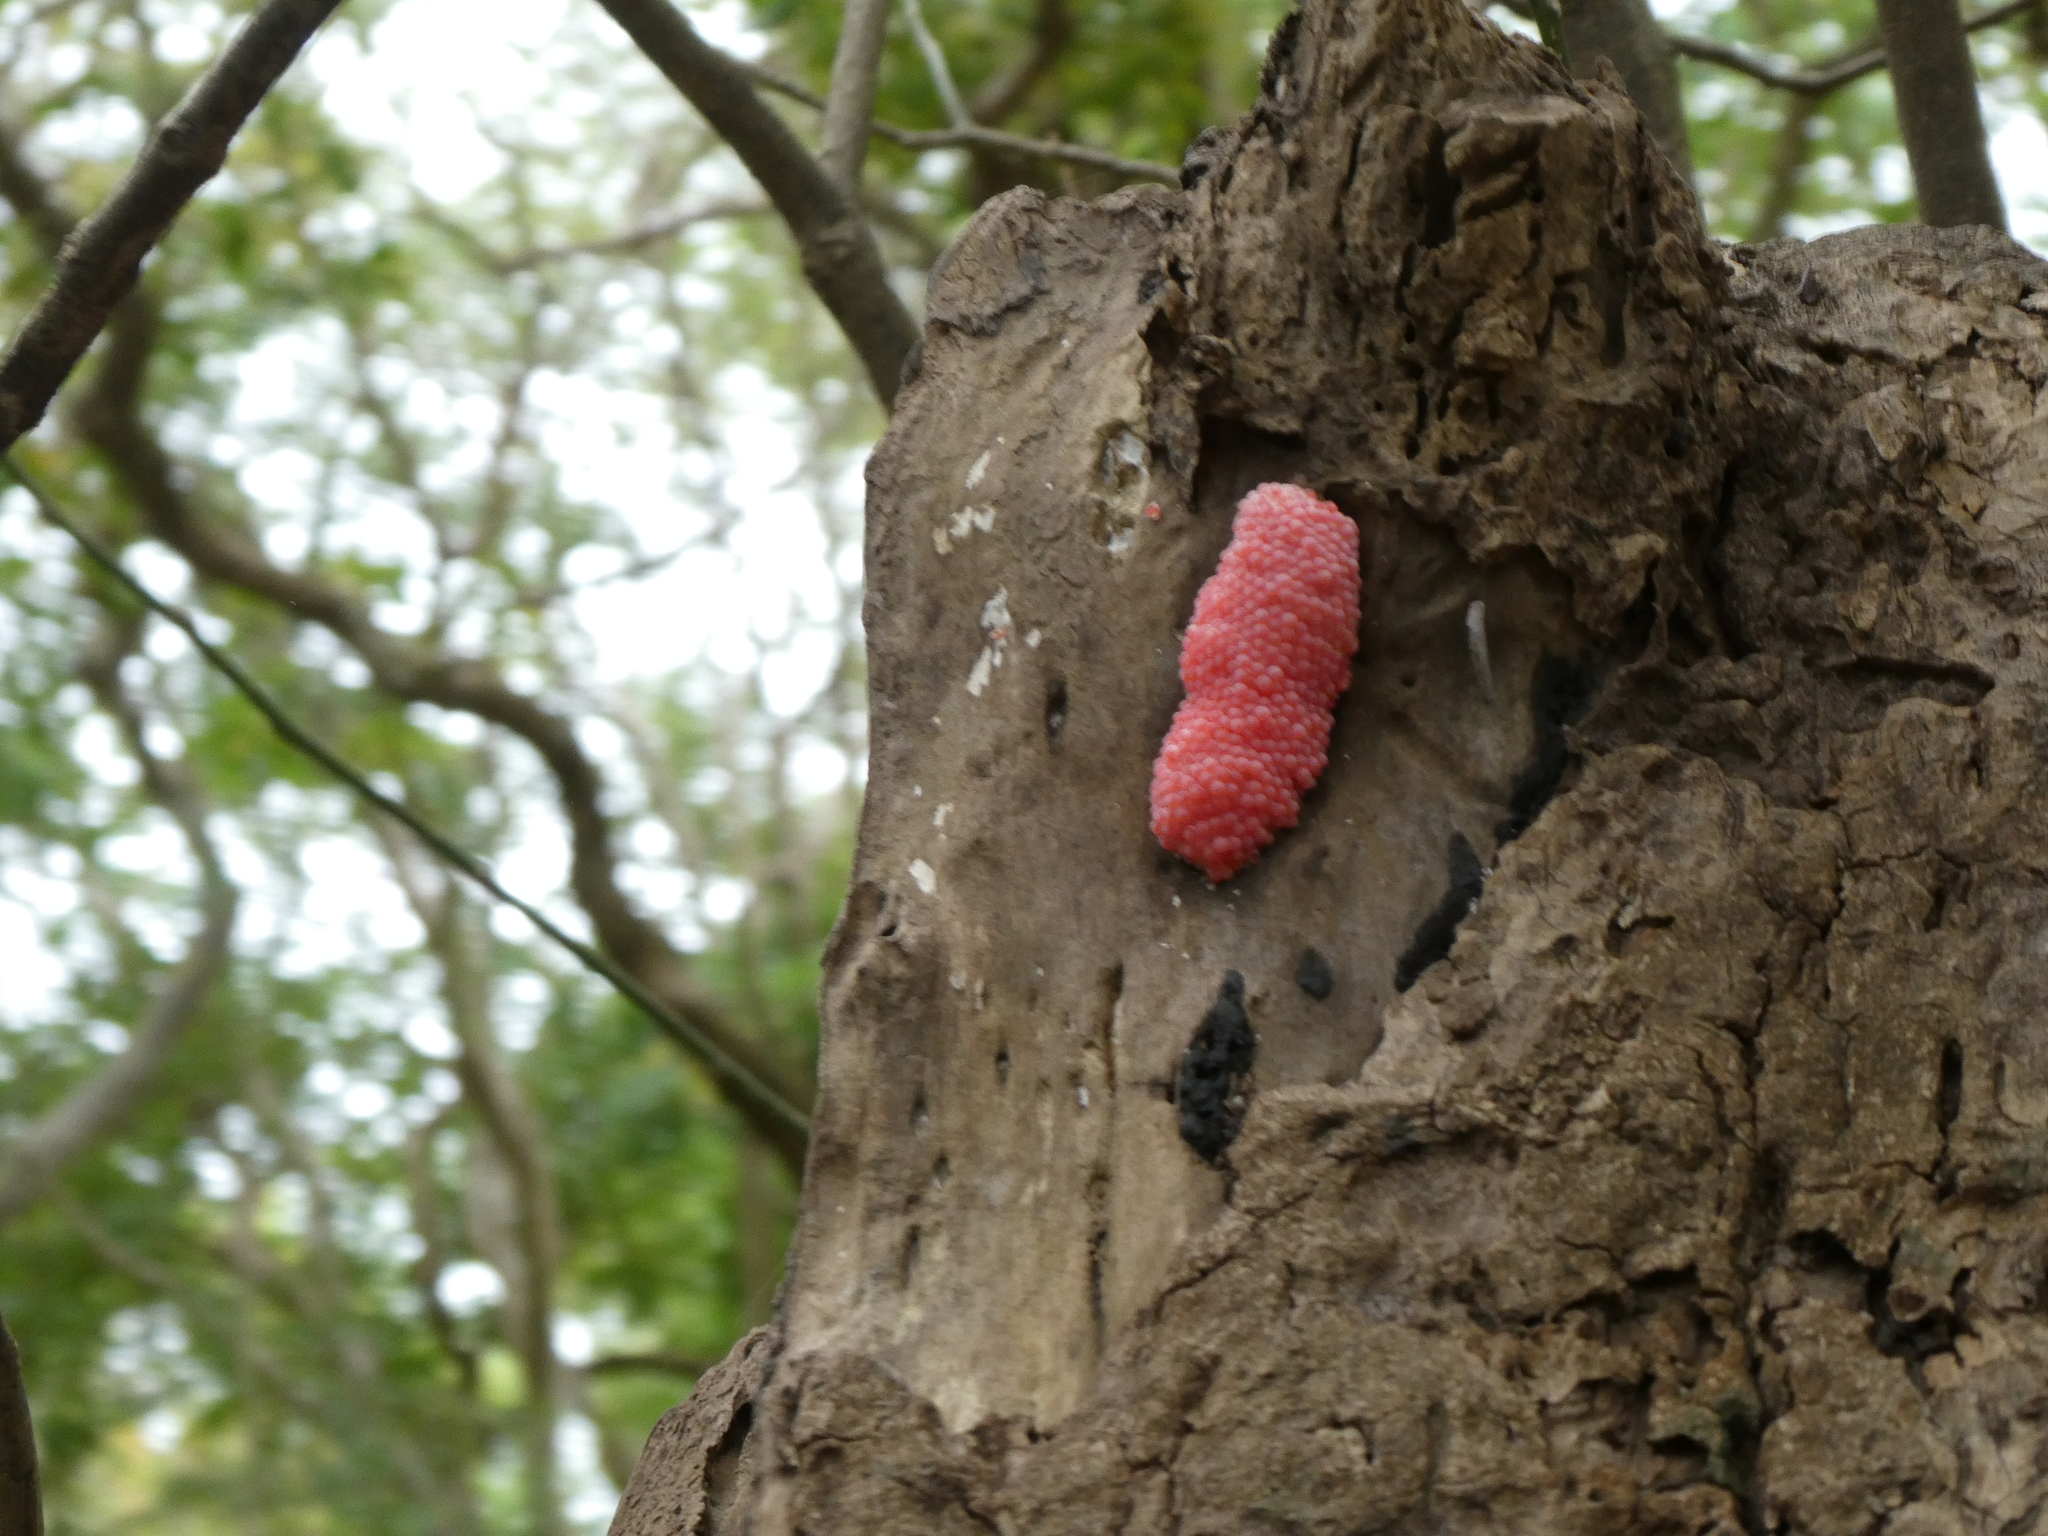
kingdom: Animalia
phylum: Mollusca
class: Gastropoda
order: Architaenioglossa
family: Ampullariidae
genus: Pomacea
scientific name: Pomacea canaliculata
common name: Channeled applesnail
